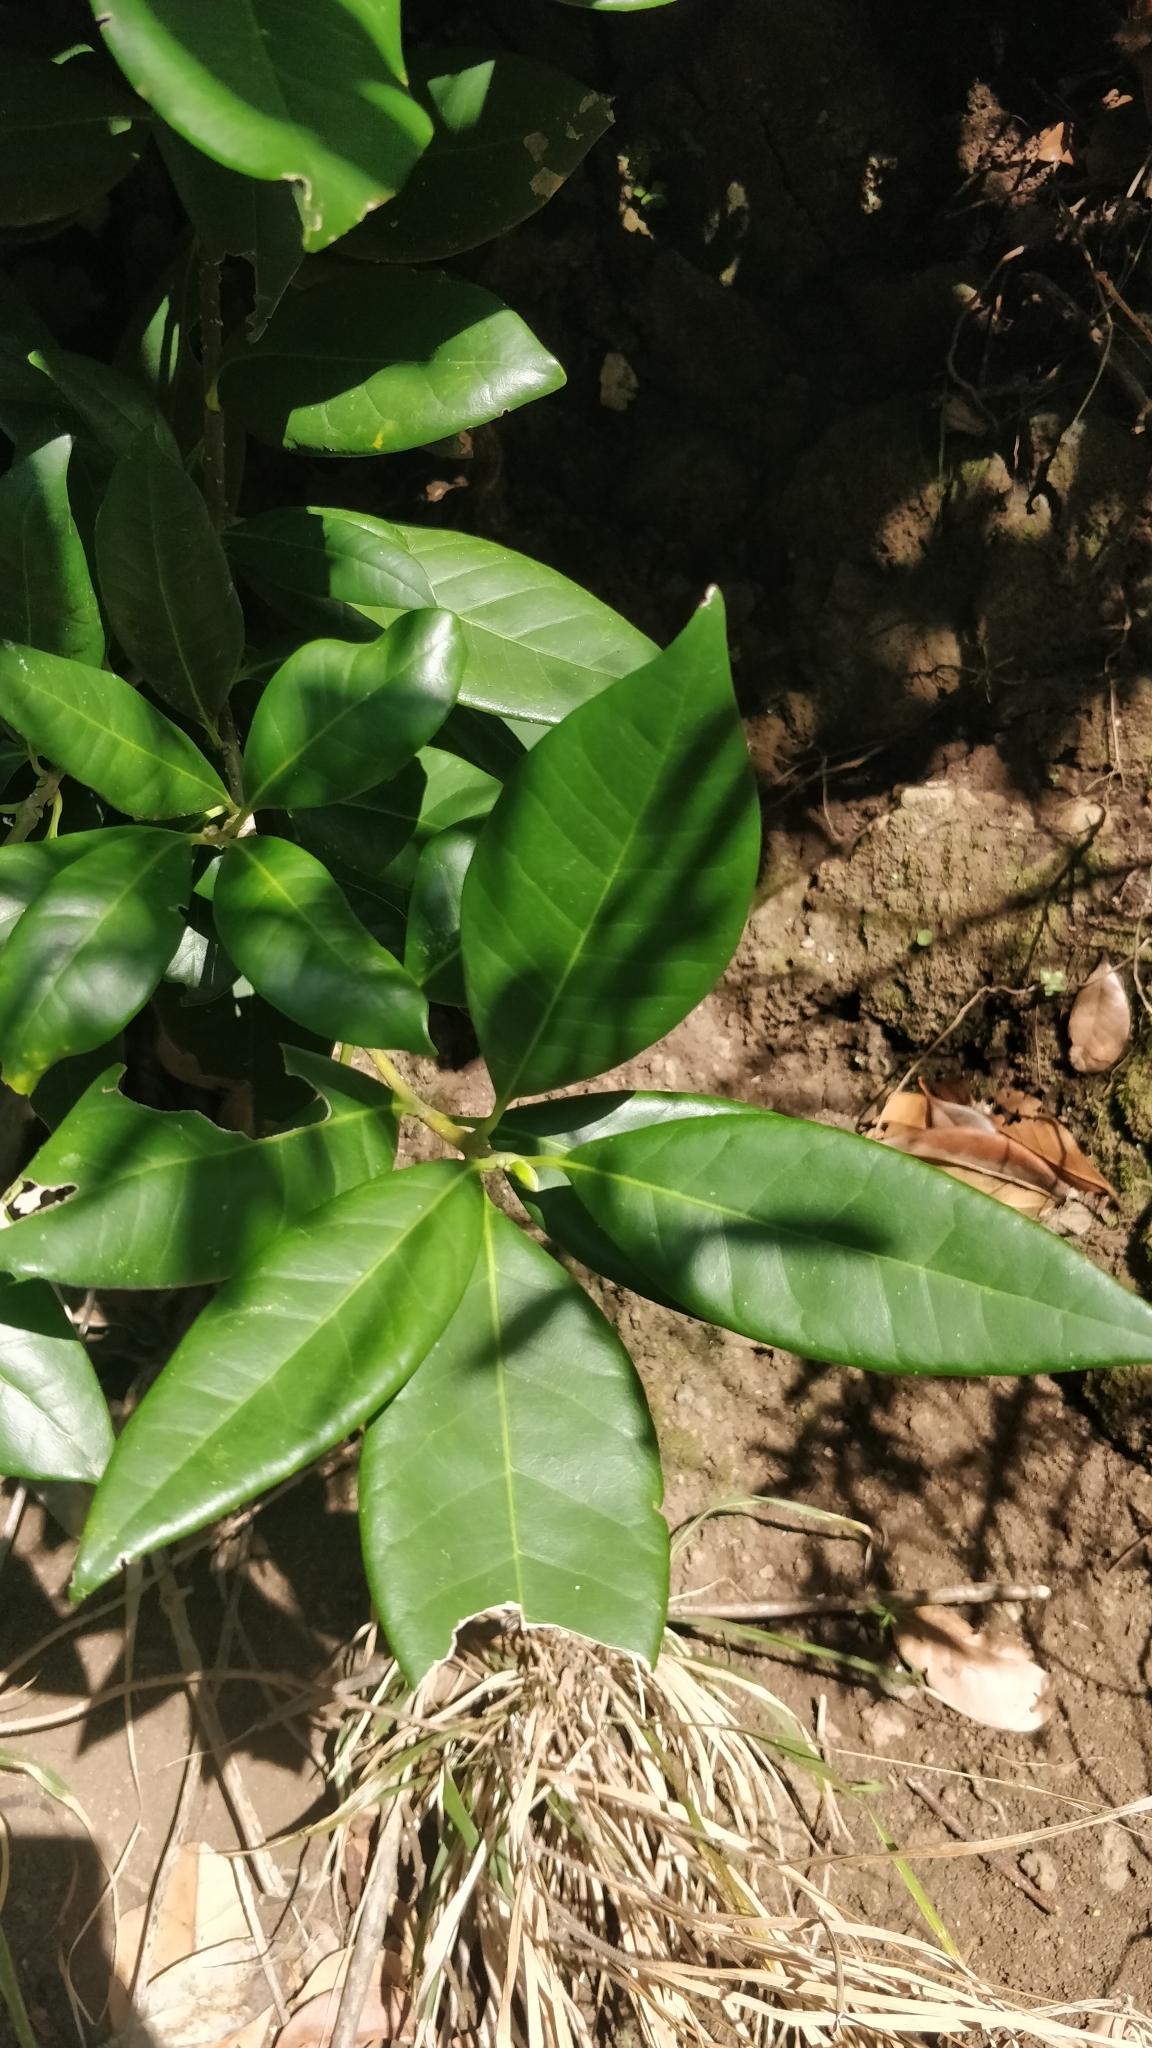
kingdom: Plantae
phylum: Tracheophyta
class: Magnoliopsida
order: Lamiales
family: Oleaceae
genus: Picconia
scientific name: Picconia excelsa
